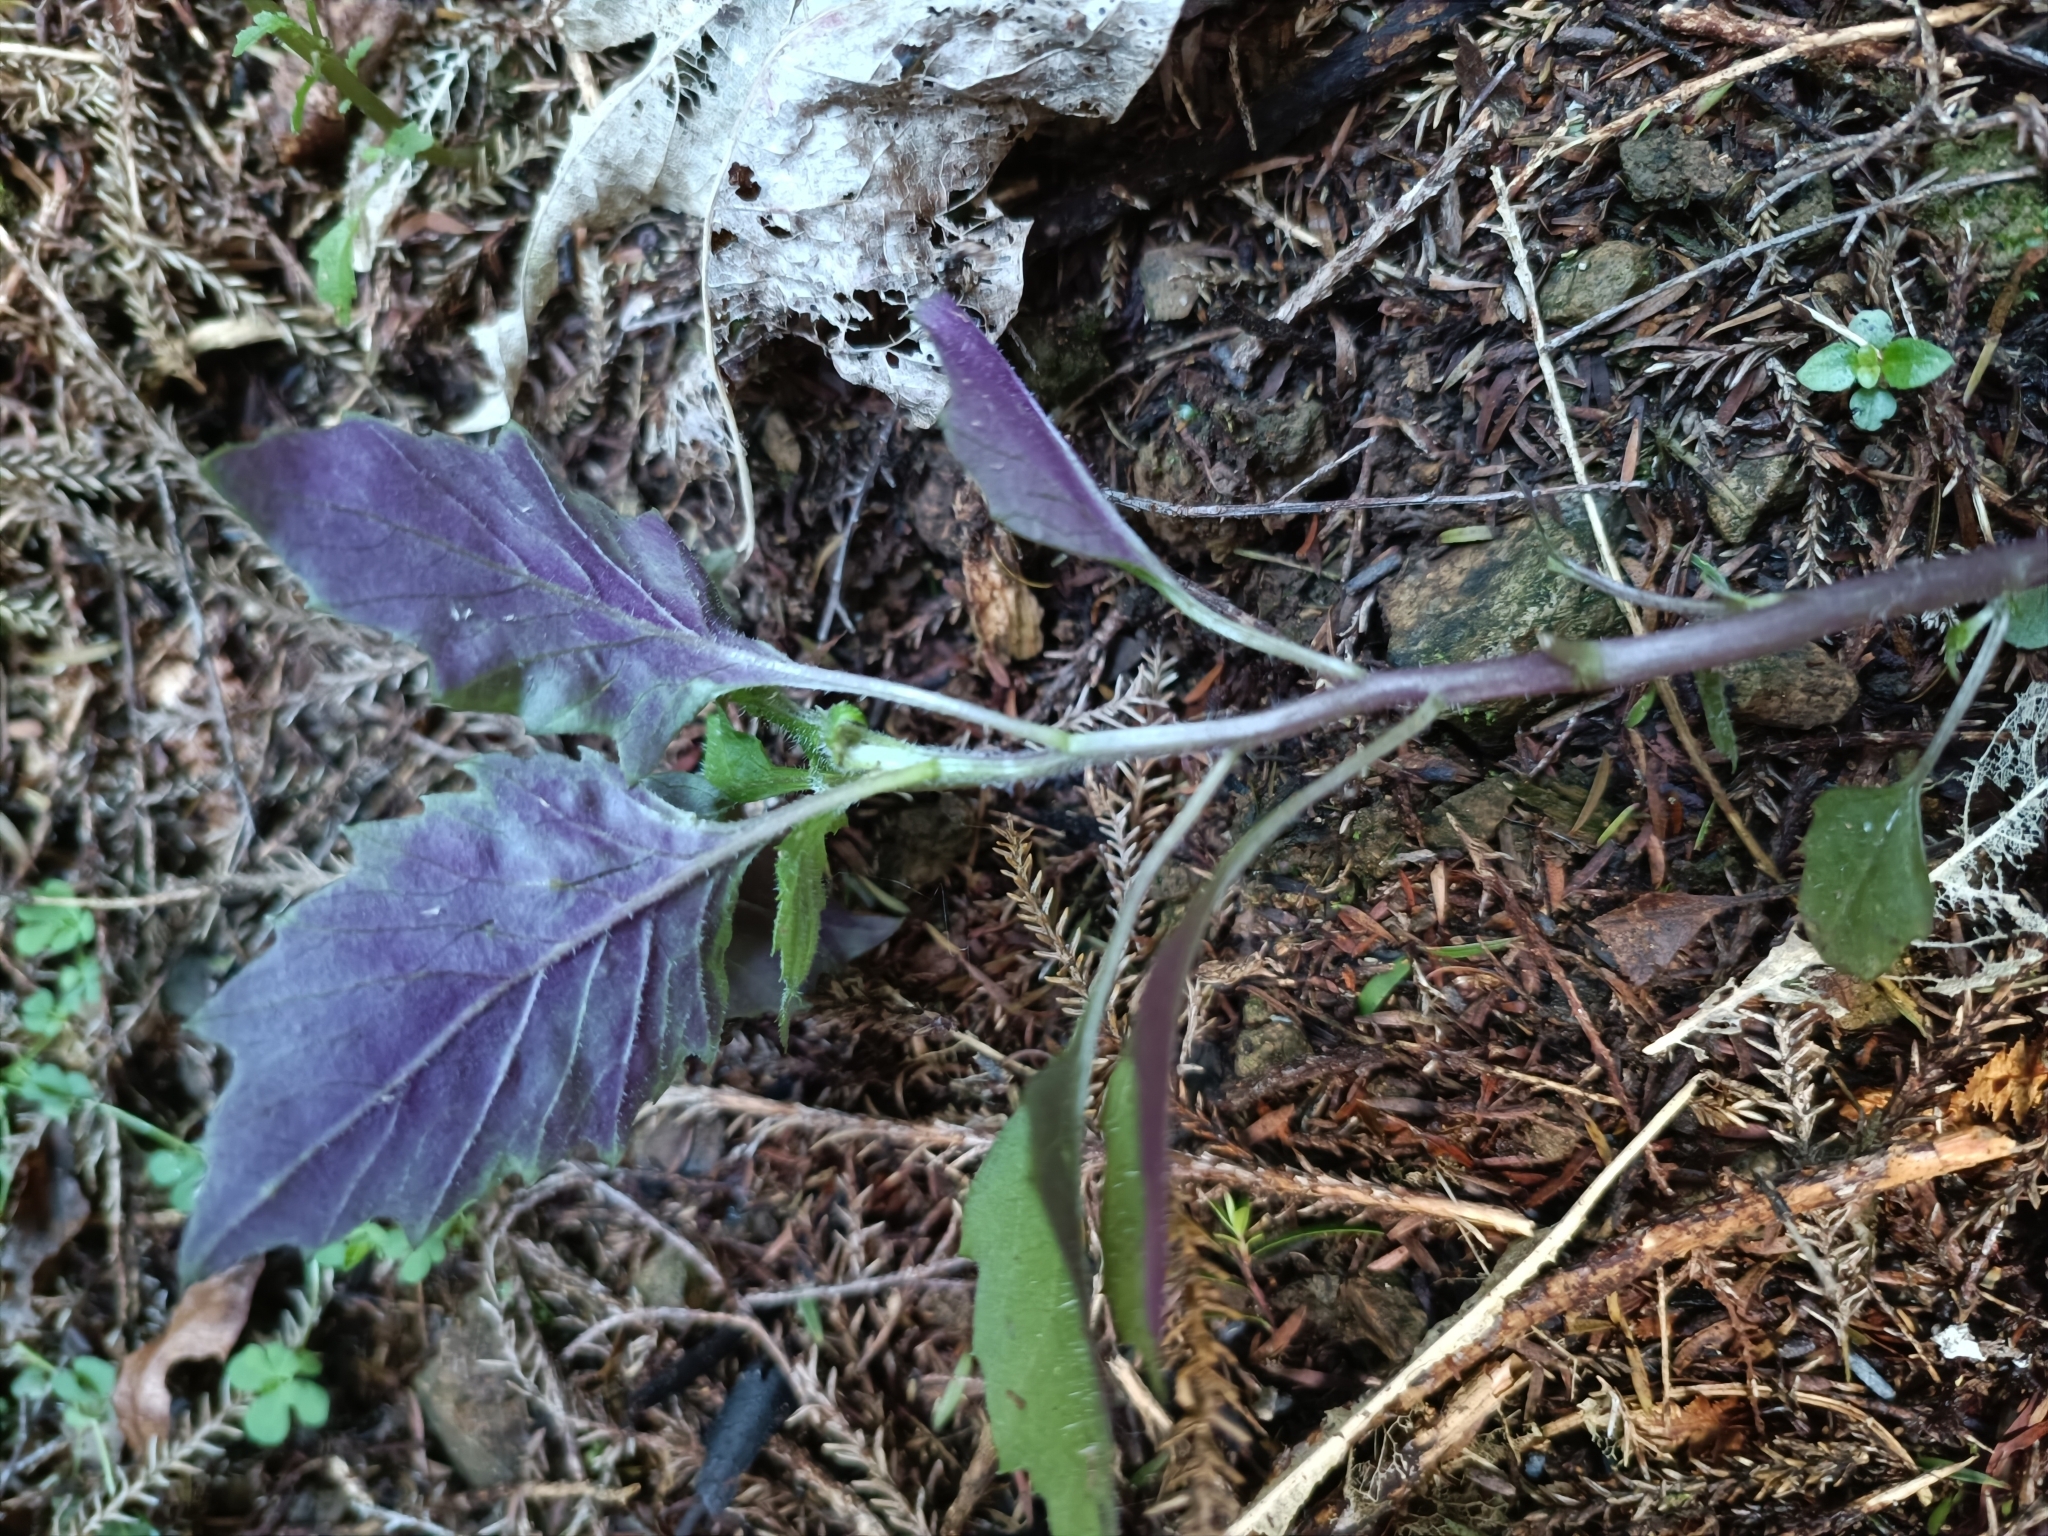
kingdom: Plantae
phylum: Tracheophyta
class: Magnoliopsida
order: Asterales
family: Asteraceae
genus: Erechtites
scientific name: Erechtites hieraciifolius
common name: American burnweed
